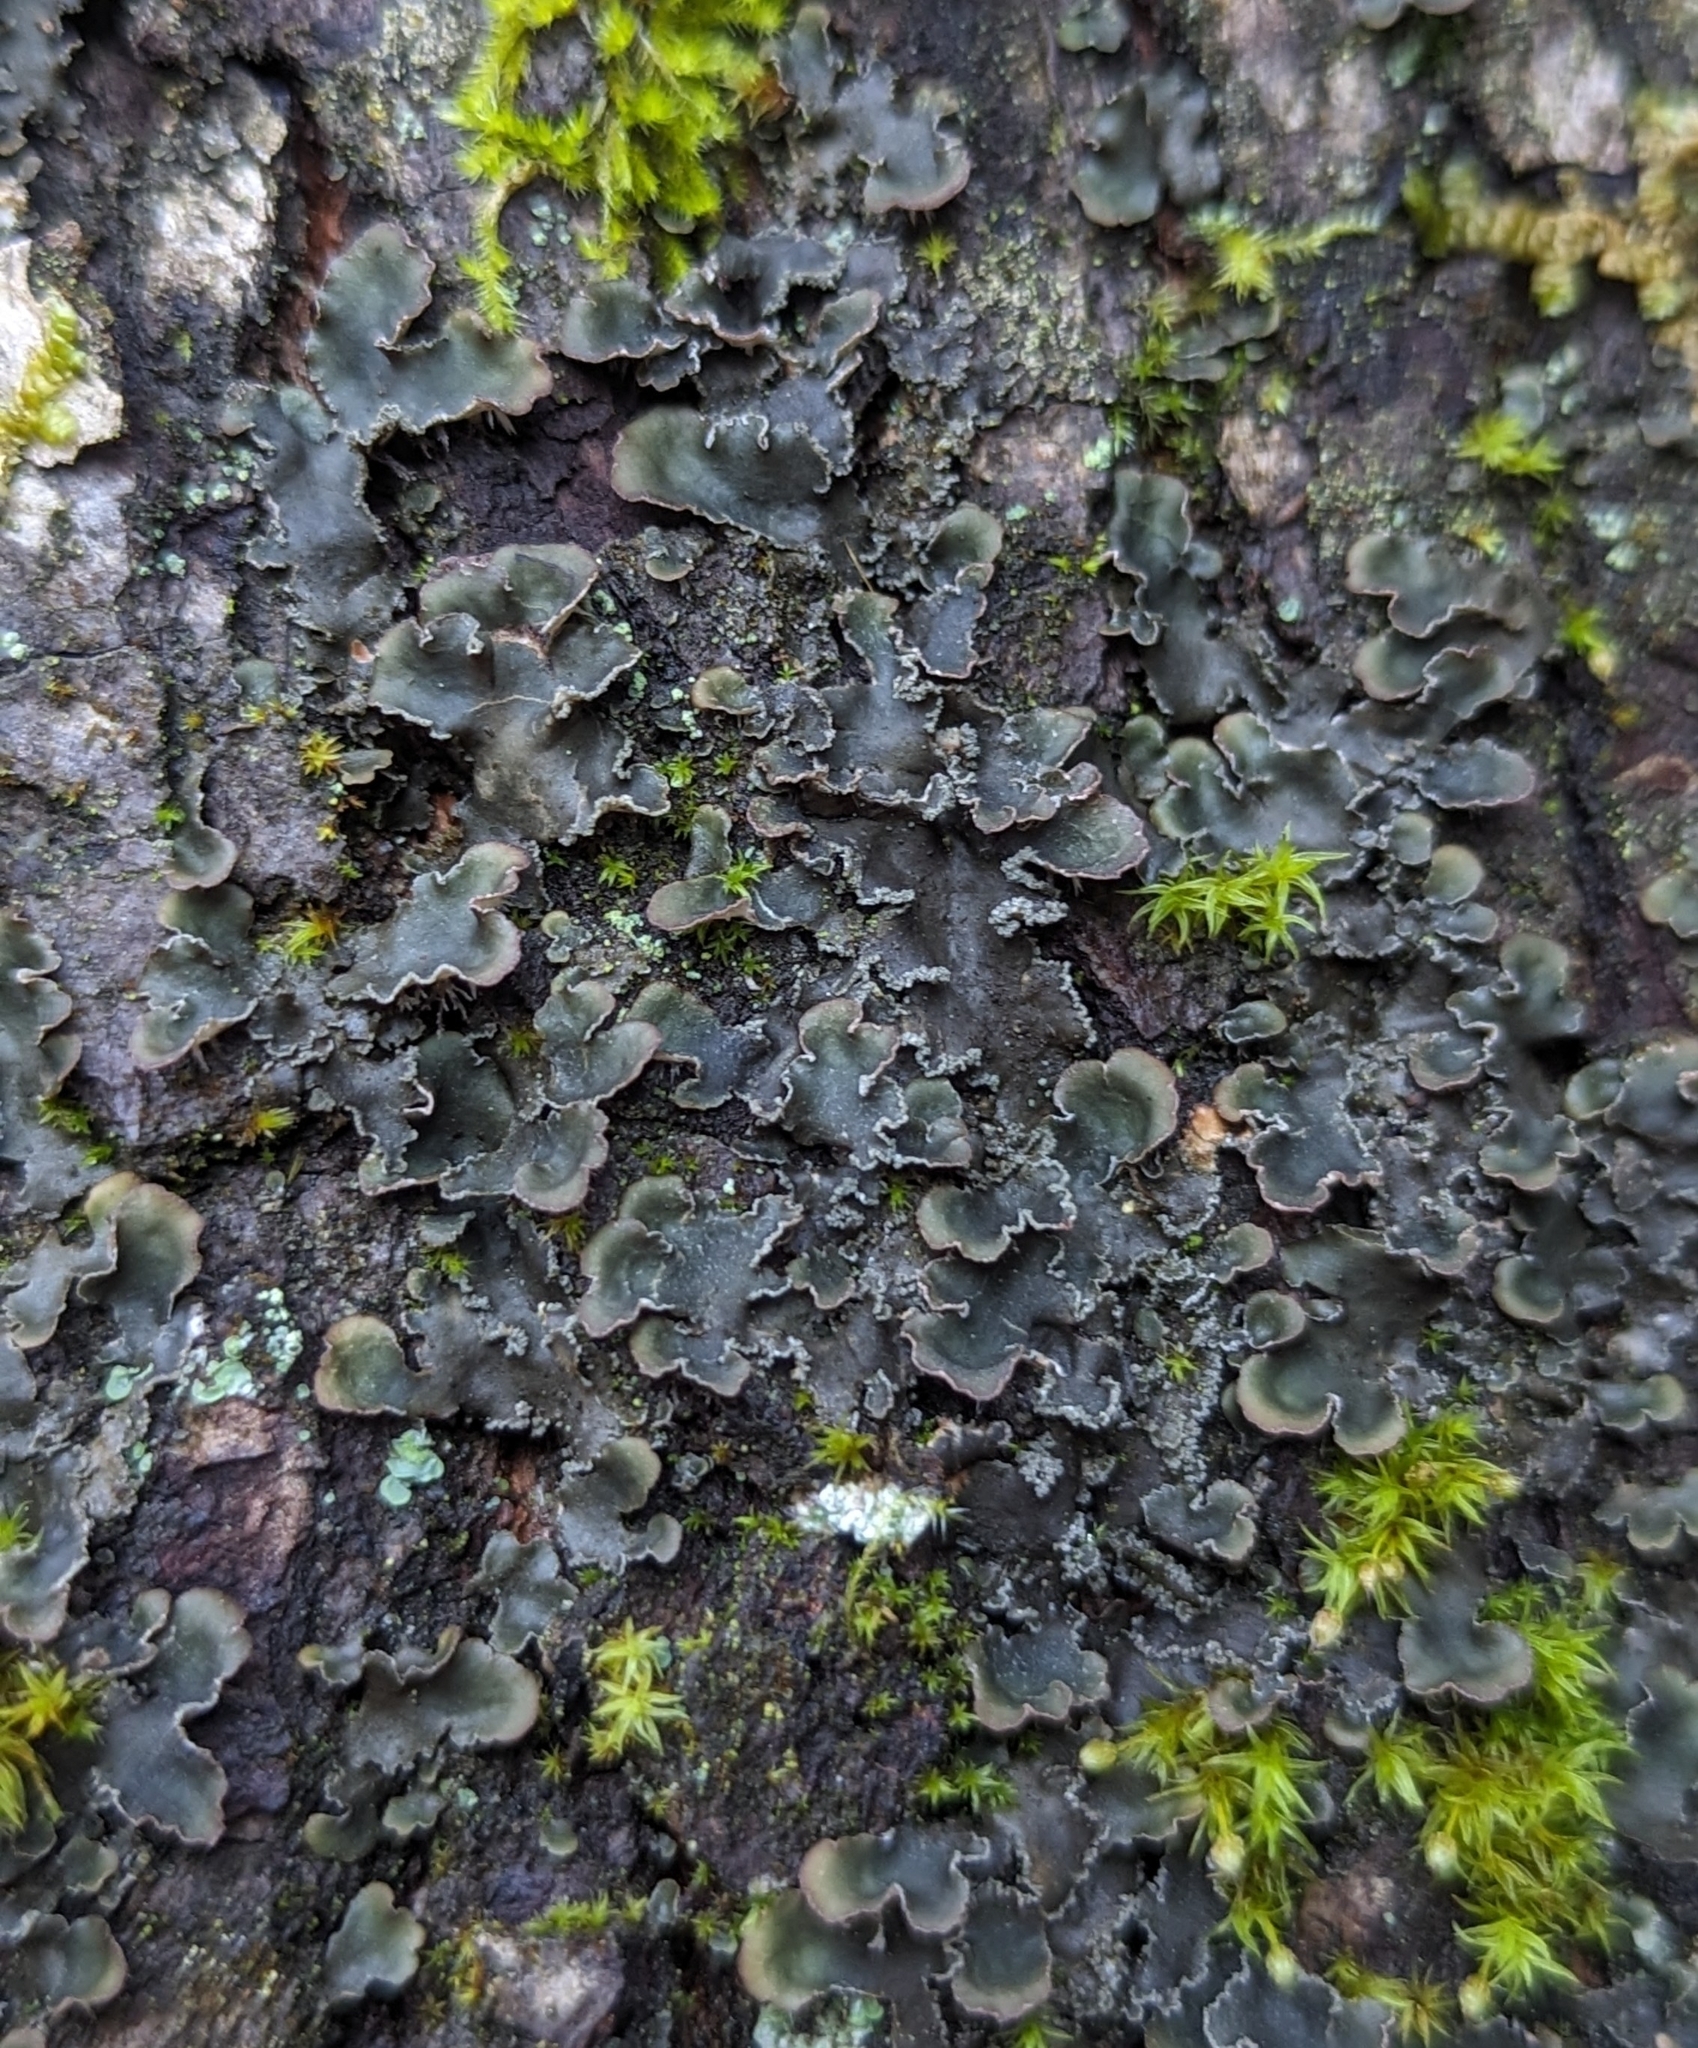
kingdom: Fungi
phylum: Ascomycota
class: Lecanoromycetes
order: Peltigerales
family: Peltigeraceae
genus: Peltigera
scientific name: Peltigera collina
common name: Gritty tree pelt lichen
